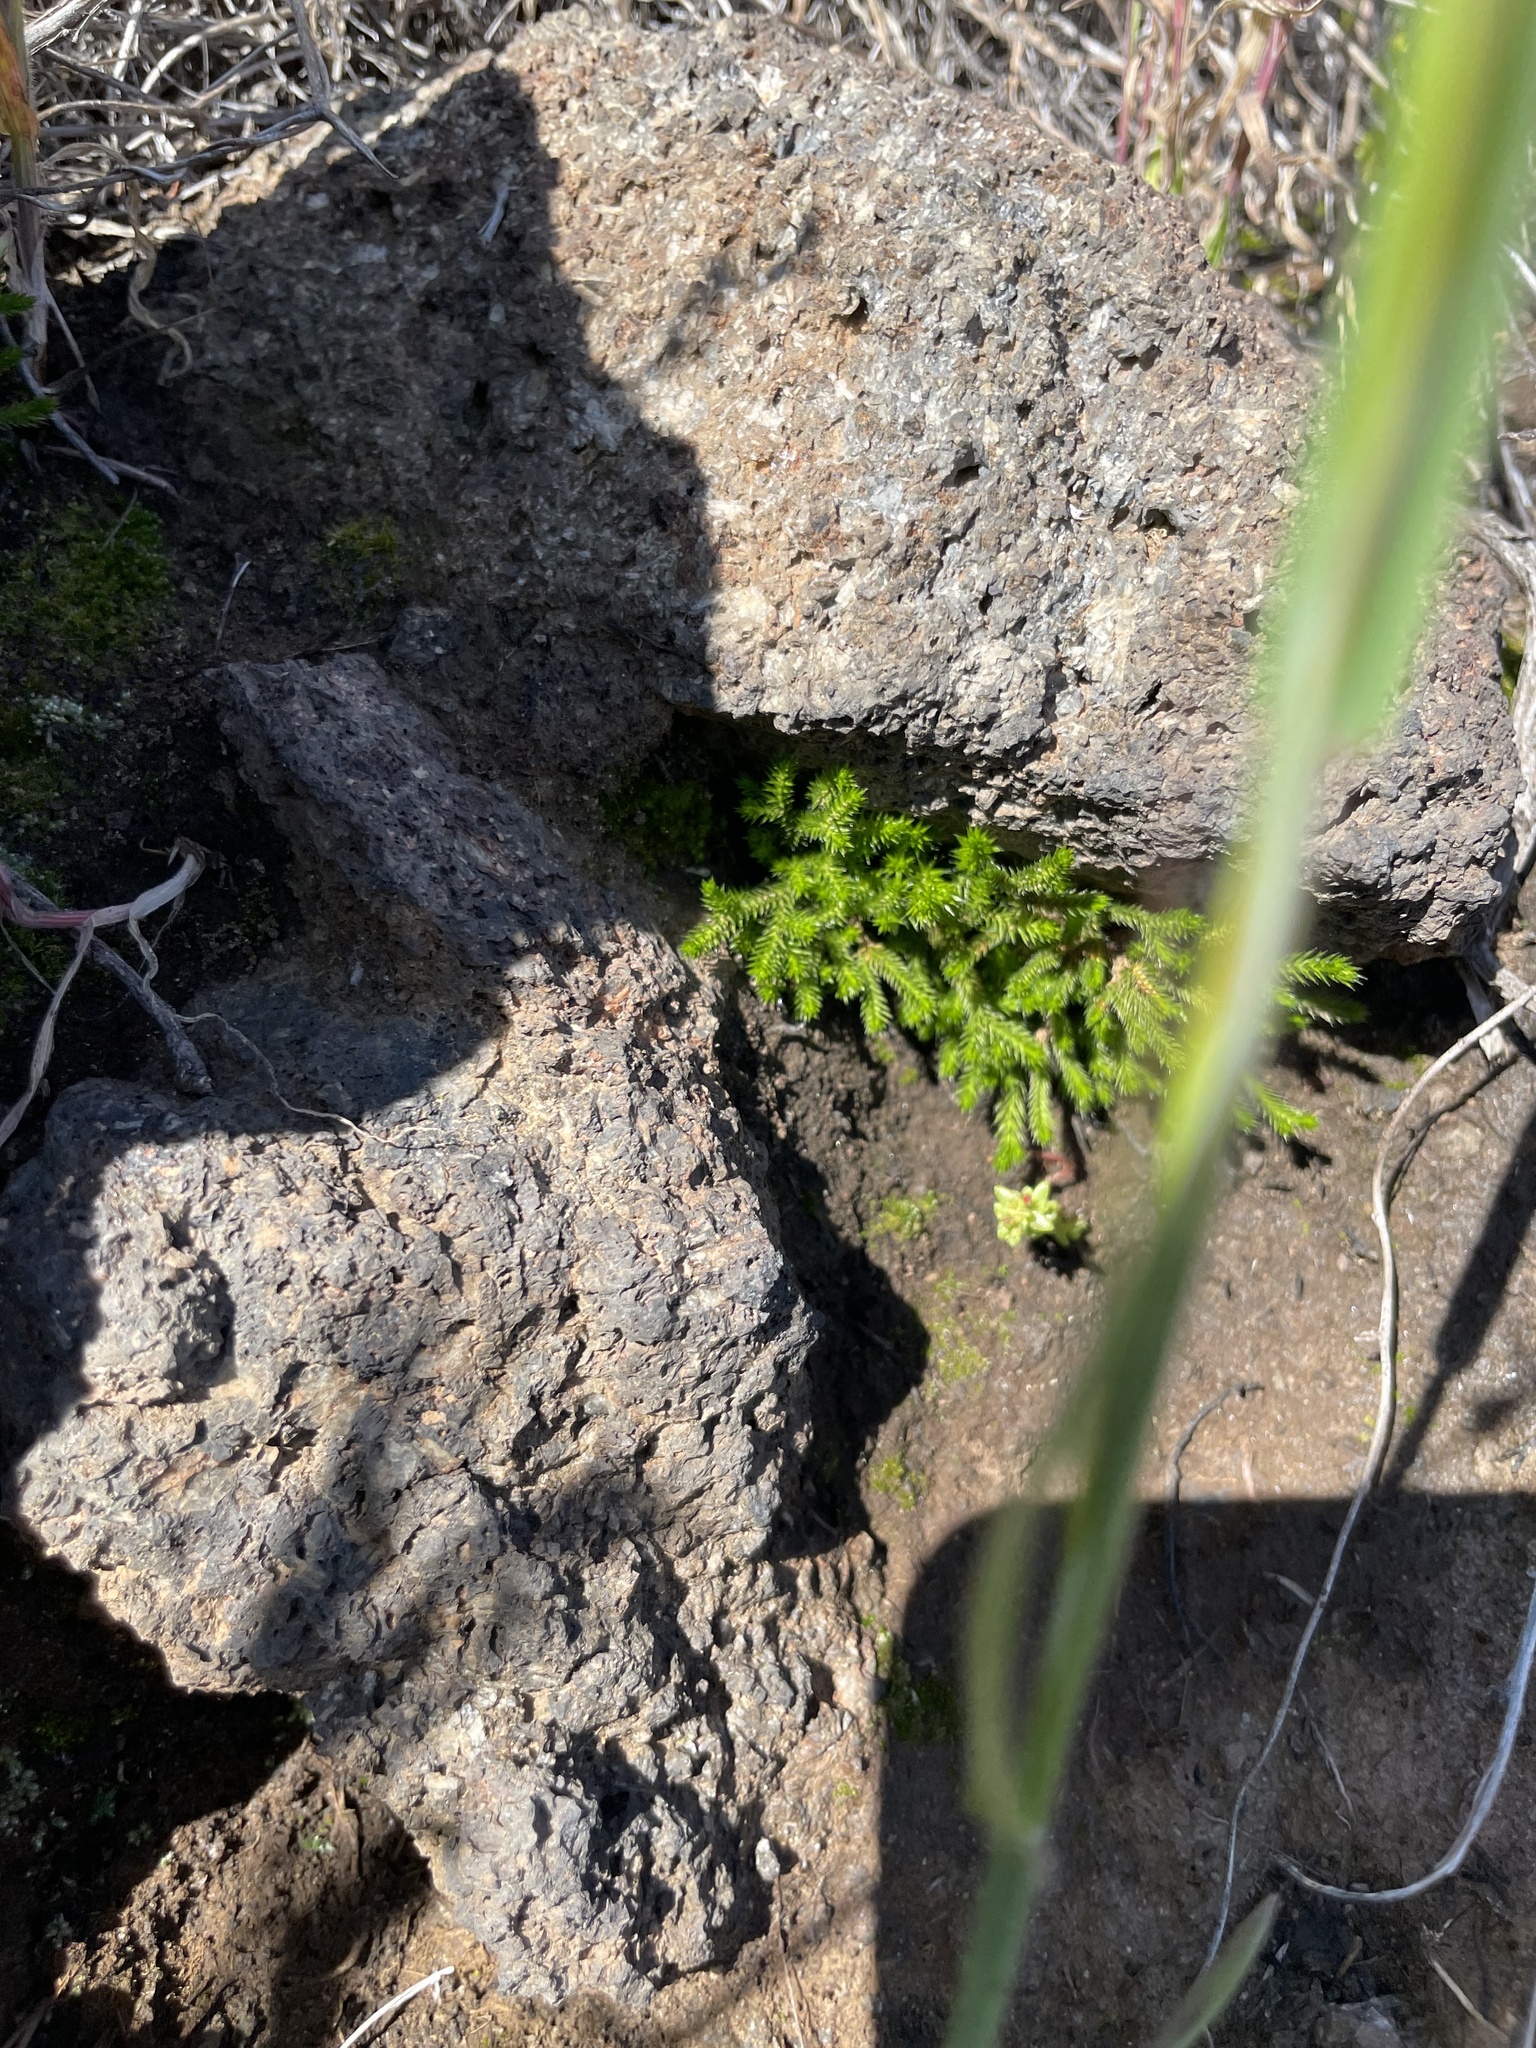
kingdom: Plantae
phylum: Tracheophyta
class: Lycopodiopsida
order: Selaginellales
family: Selaginellaceae
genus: Selaginella
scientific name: Selaginella bigelovii
